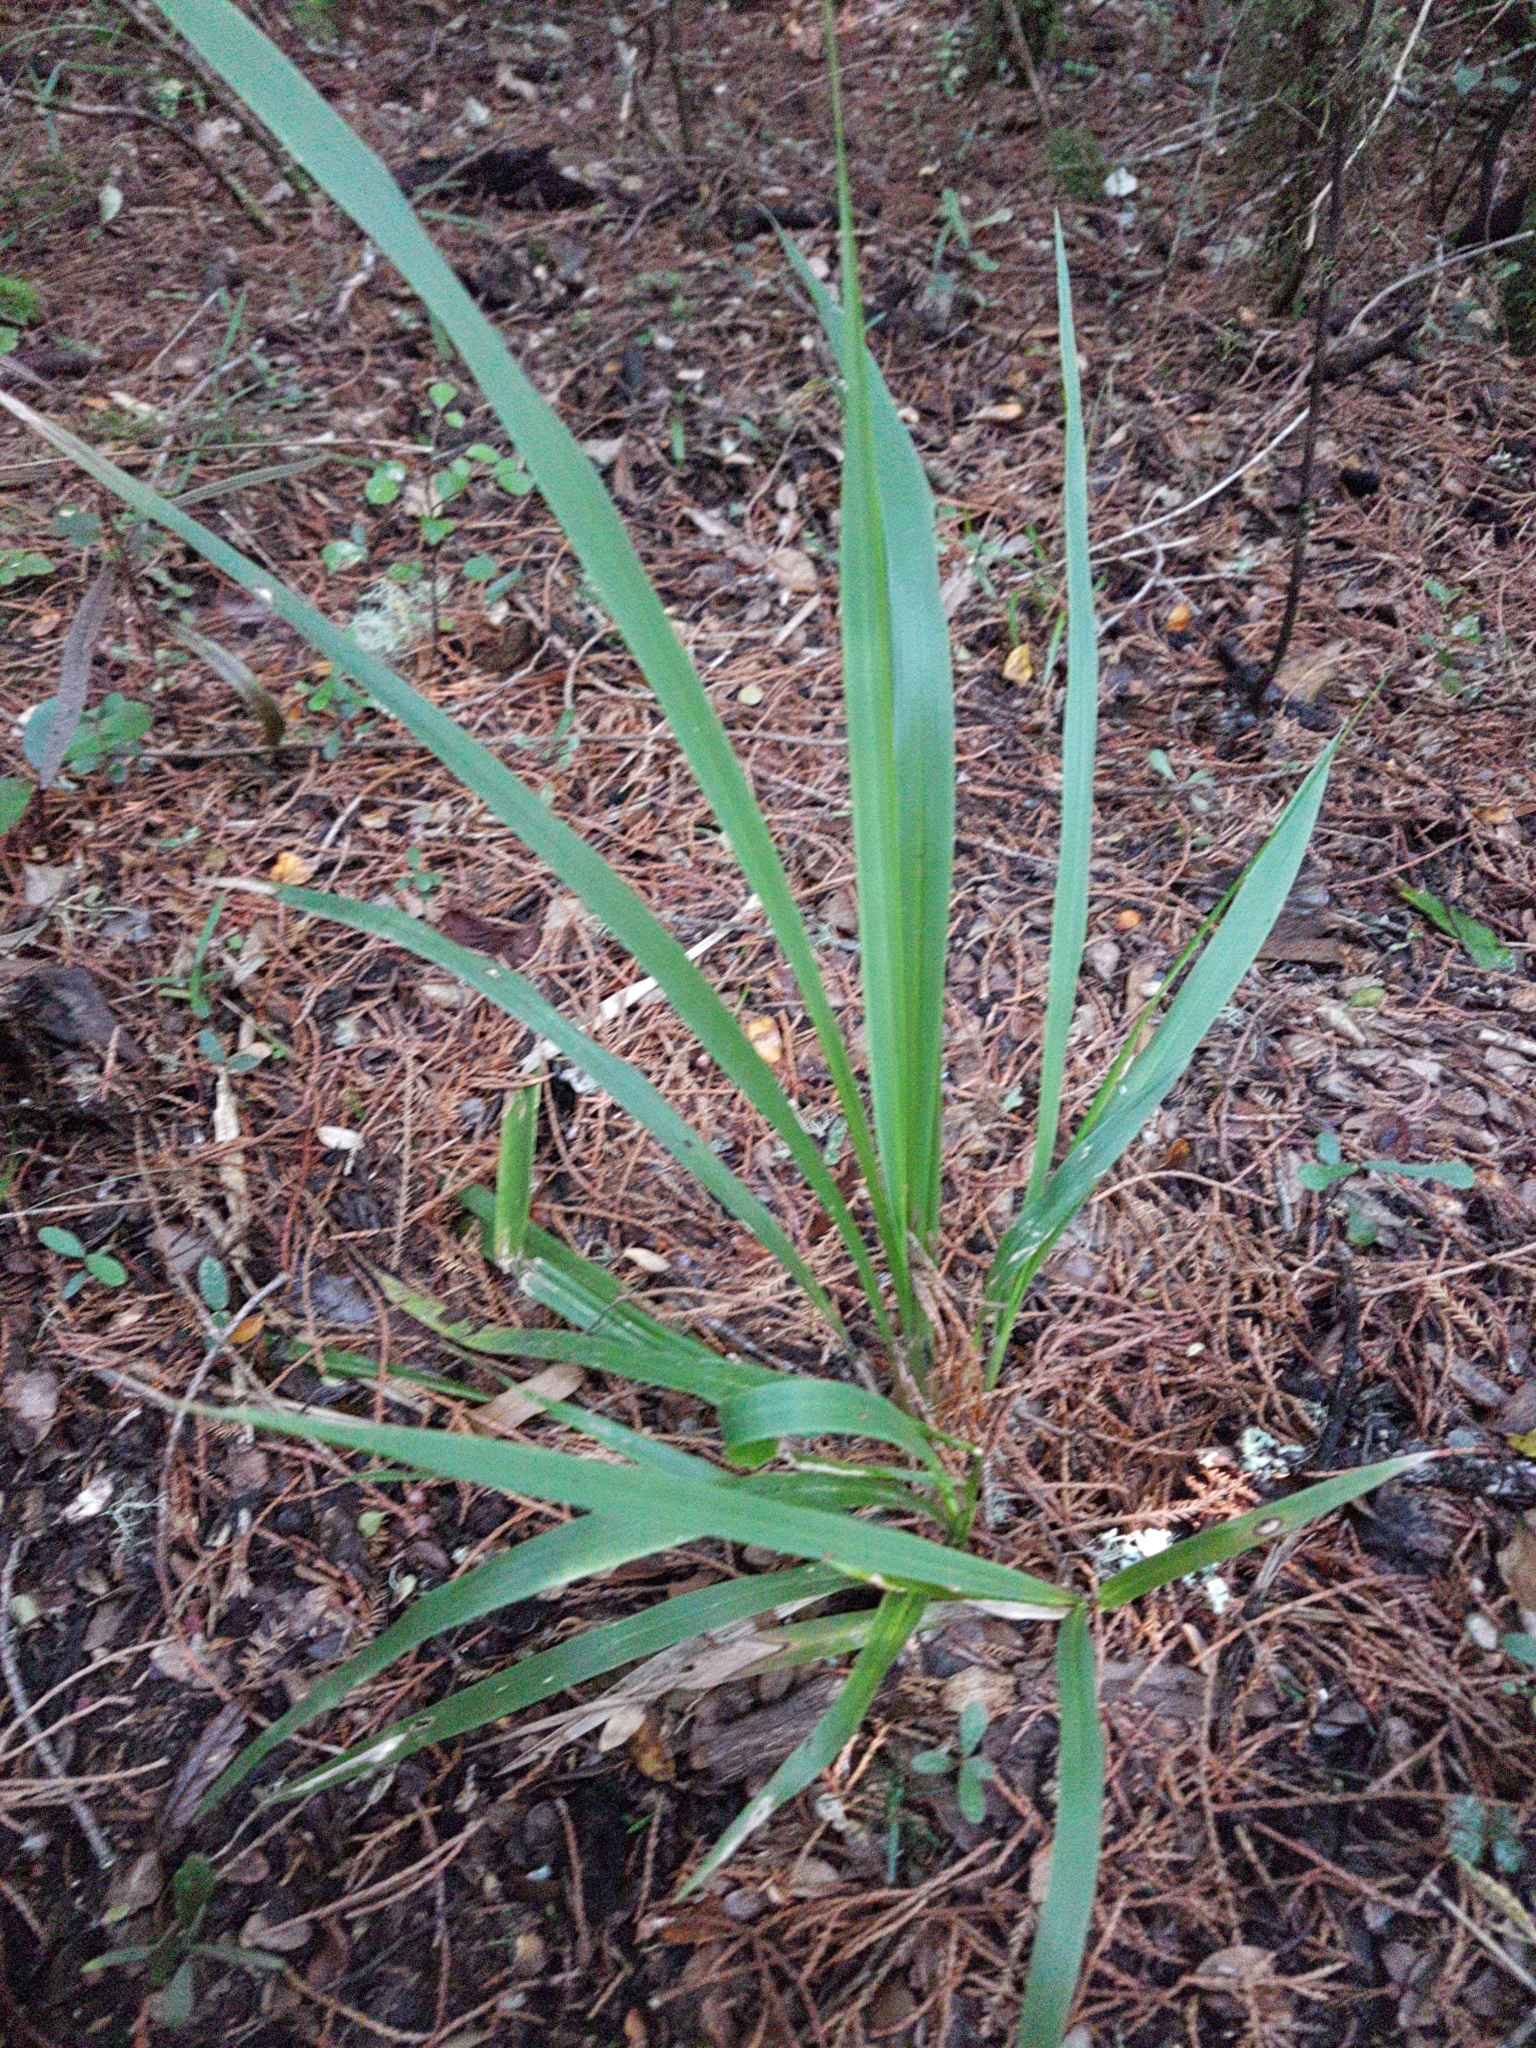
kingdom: Plantae
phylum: Tracheophyta
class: Liliopsida
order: Poales
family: Poaceae
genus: Ehrharta
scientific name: Ehrharta diplax
